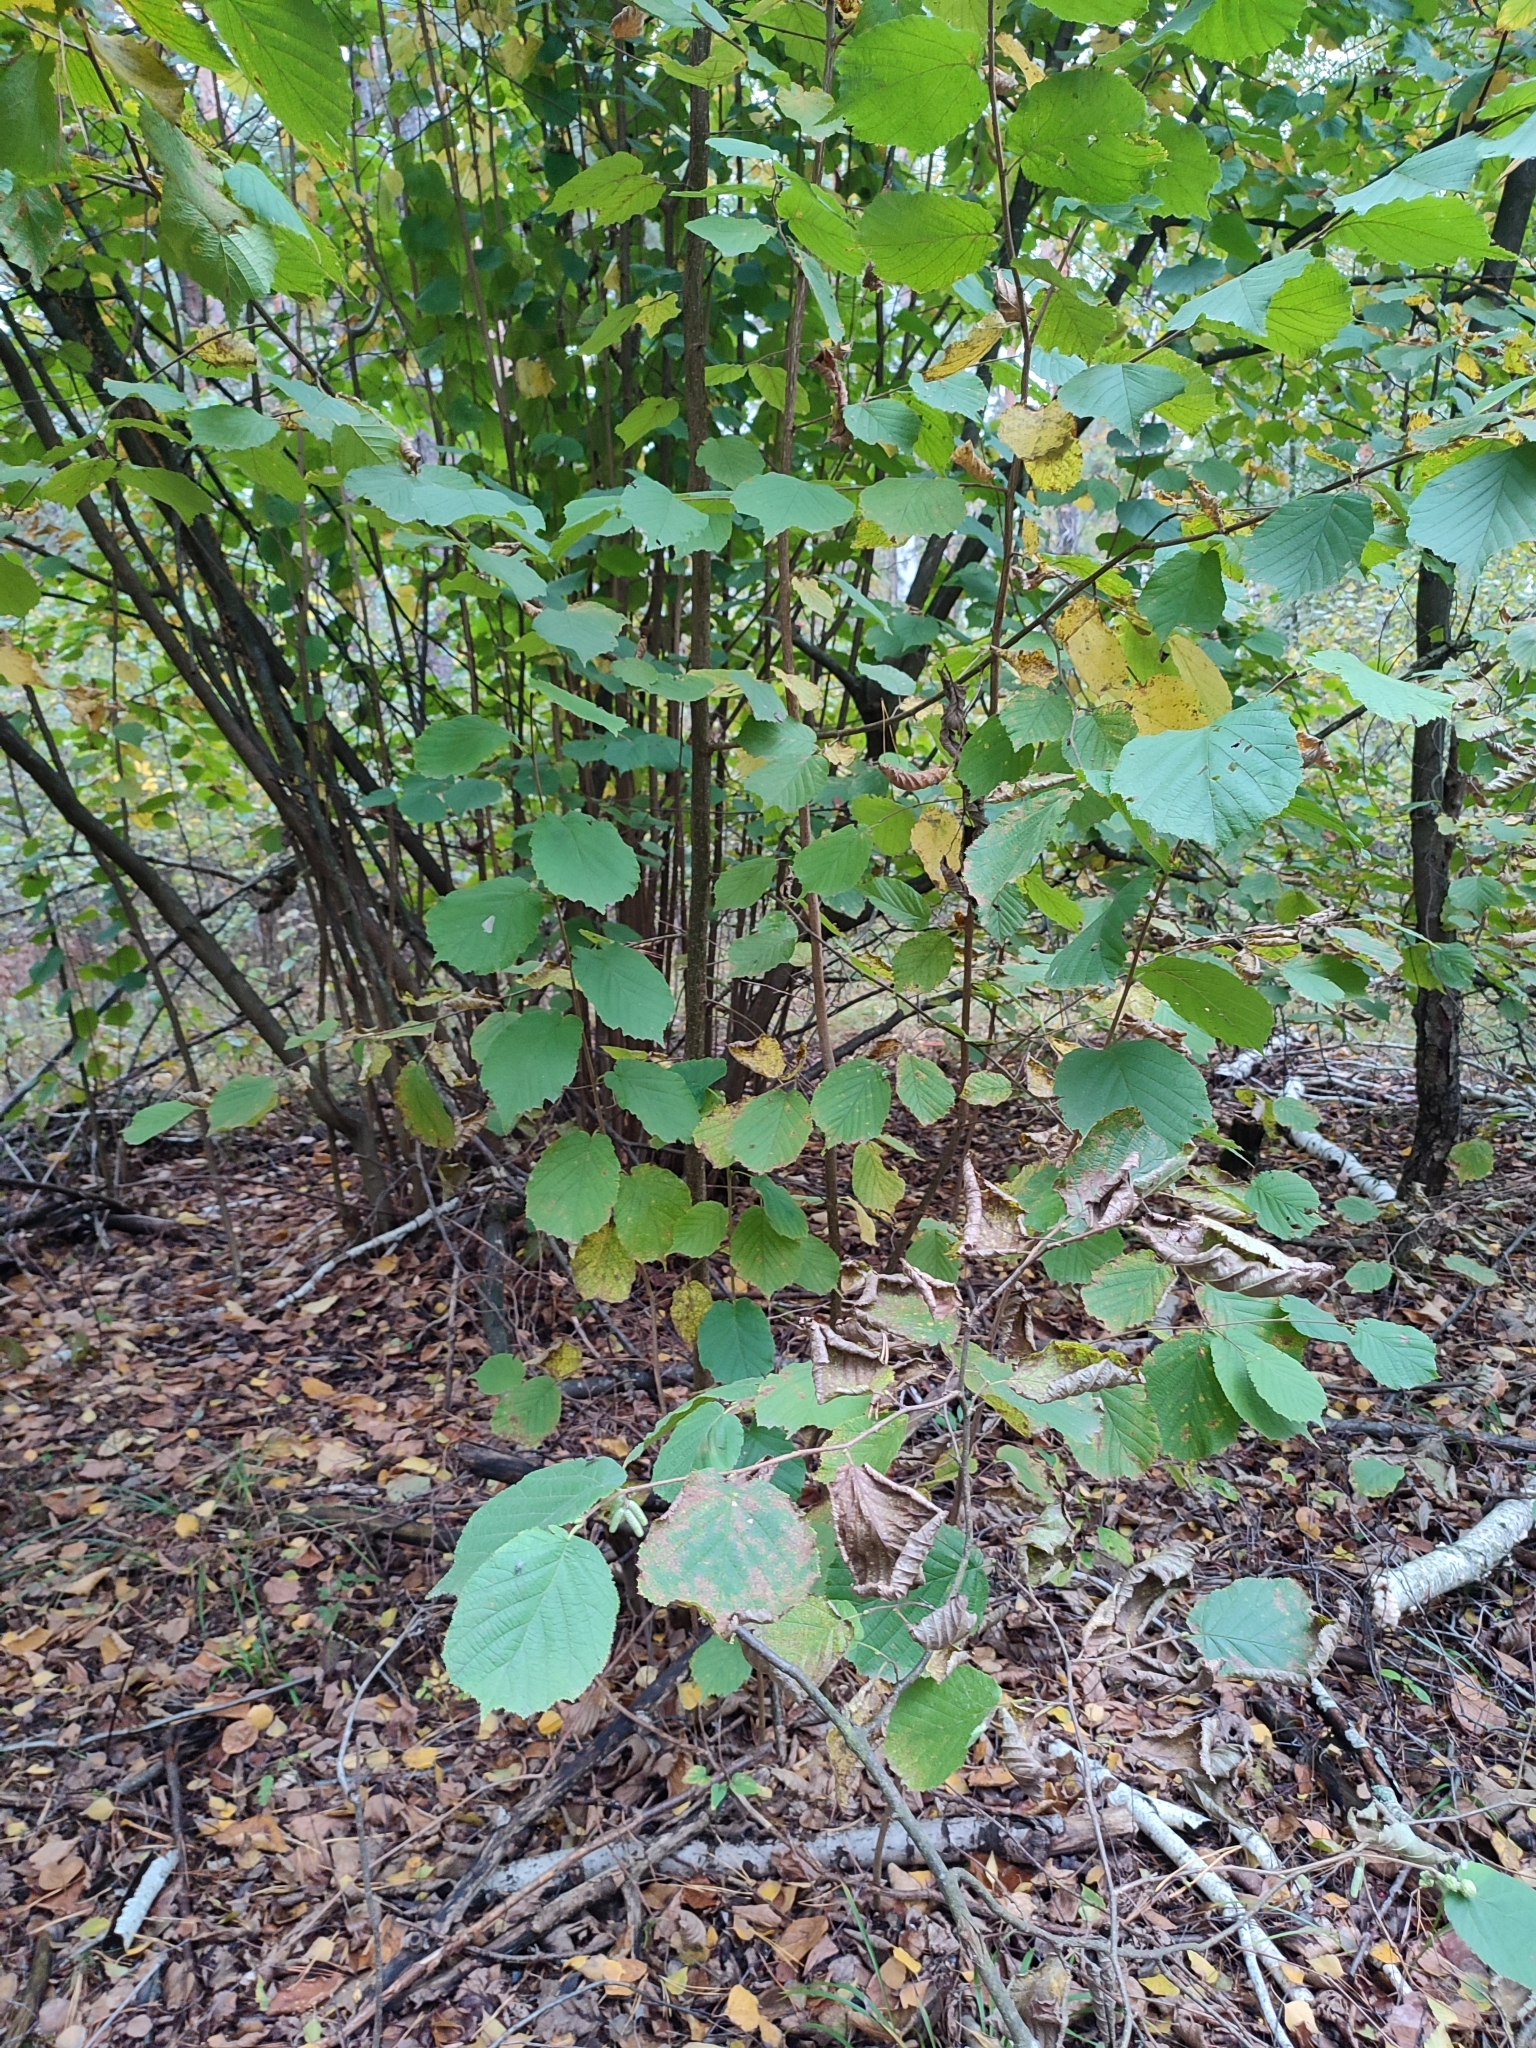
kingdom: Plantae
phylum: Tracheophyta
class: Magnoliopsida
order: Fagales
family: Betulaceae
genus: Corylus
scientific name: Corylus avellana
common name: European hazel
